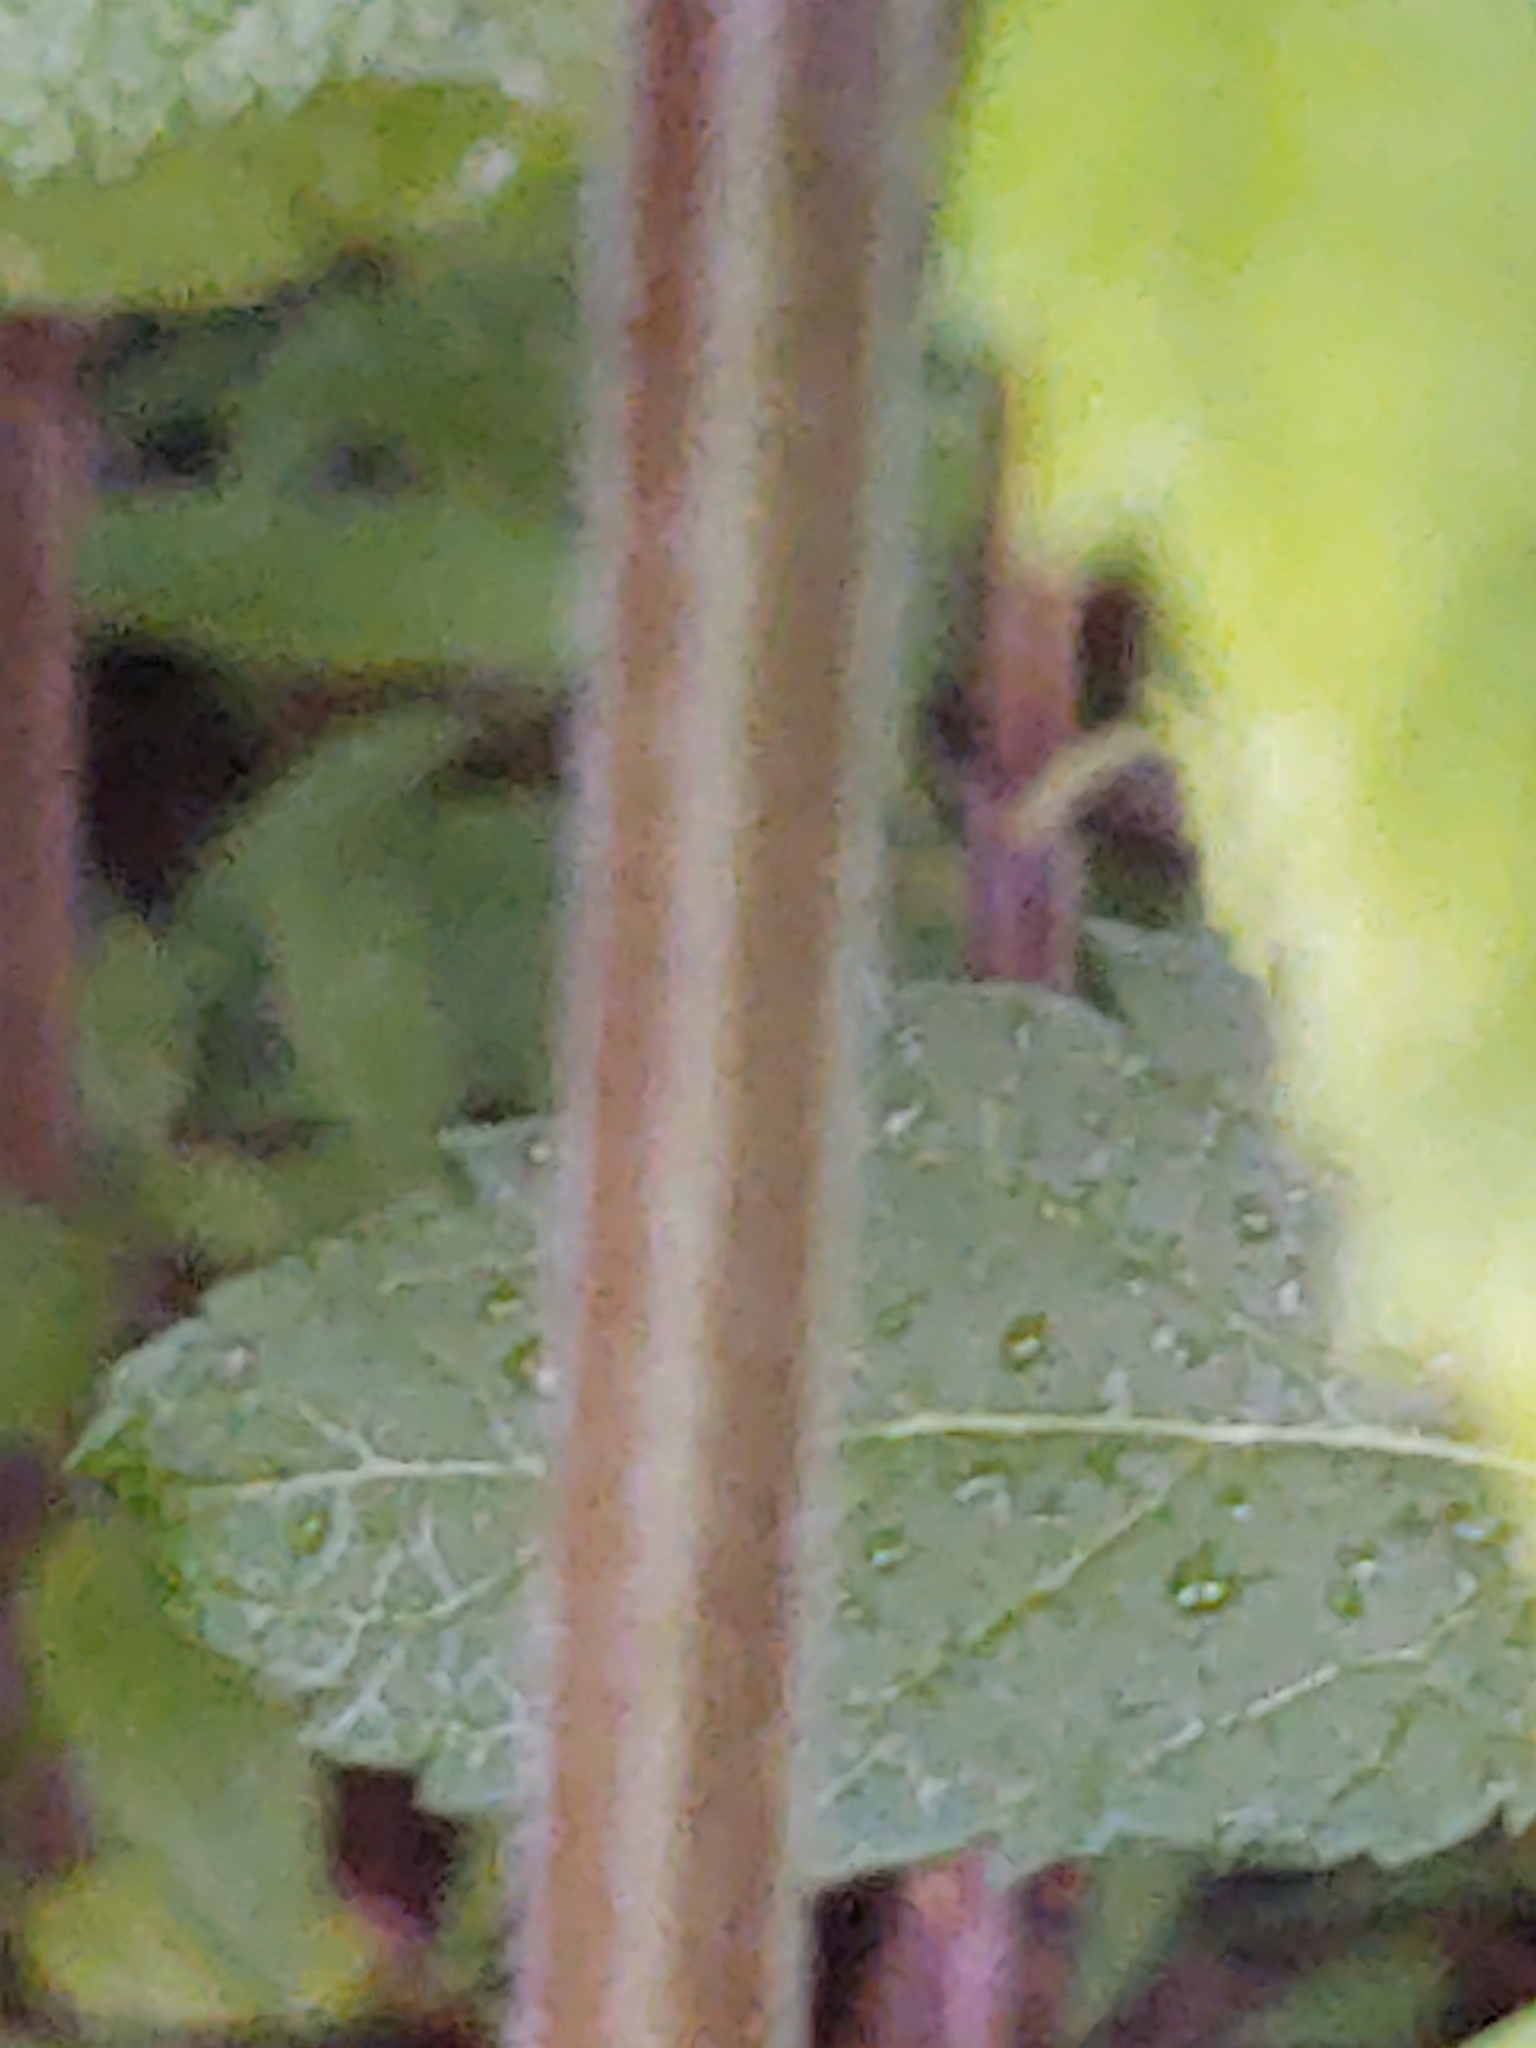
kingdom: Plantae
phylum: Tracheophyta
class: Magnoliopsida
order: Lamiales
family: Lamiaceae
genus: Teucrium
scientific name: Teucrium canadense
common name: American germander
